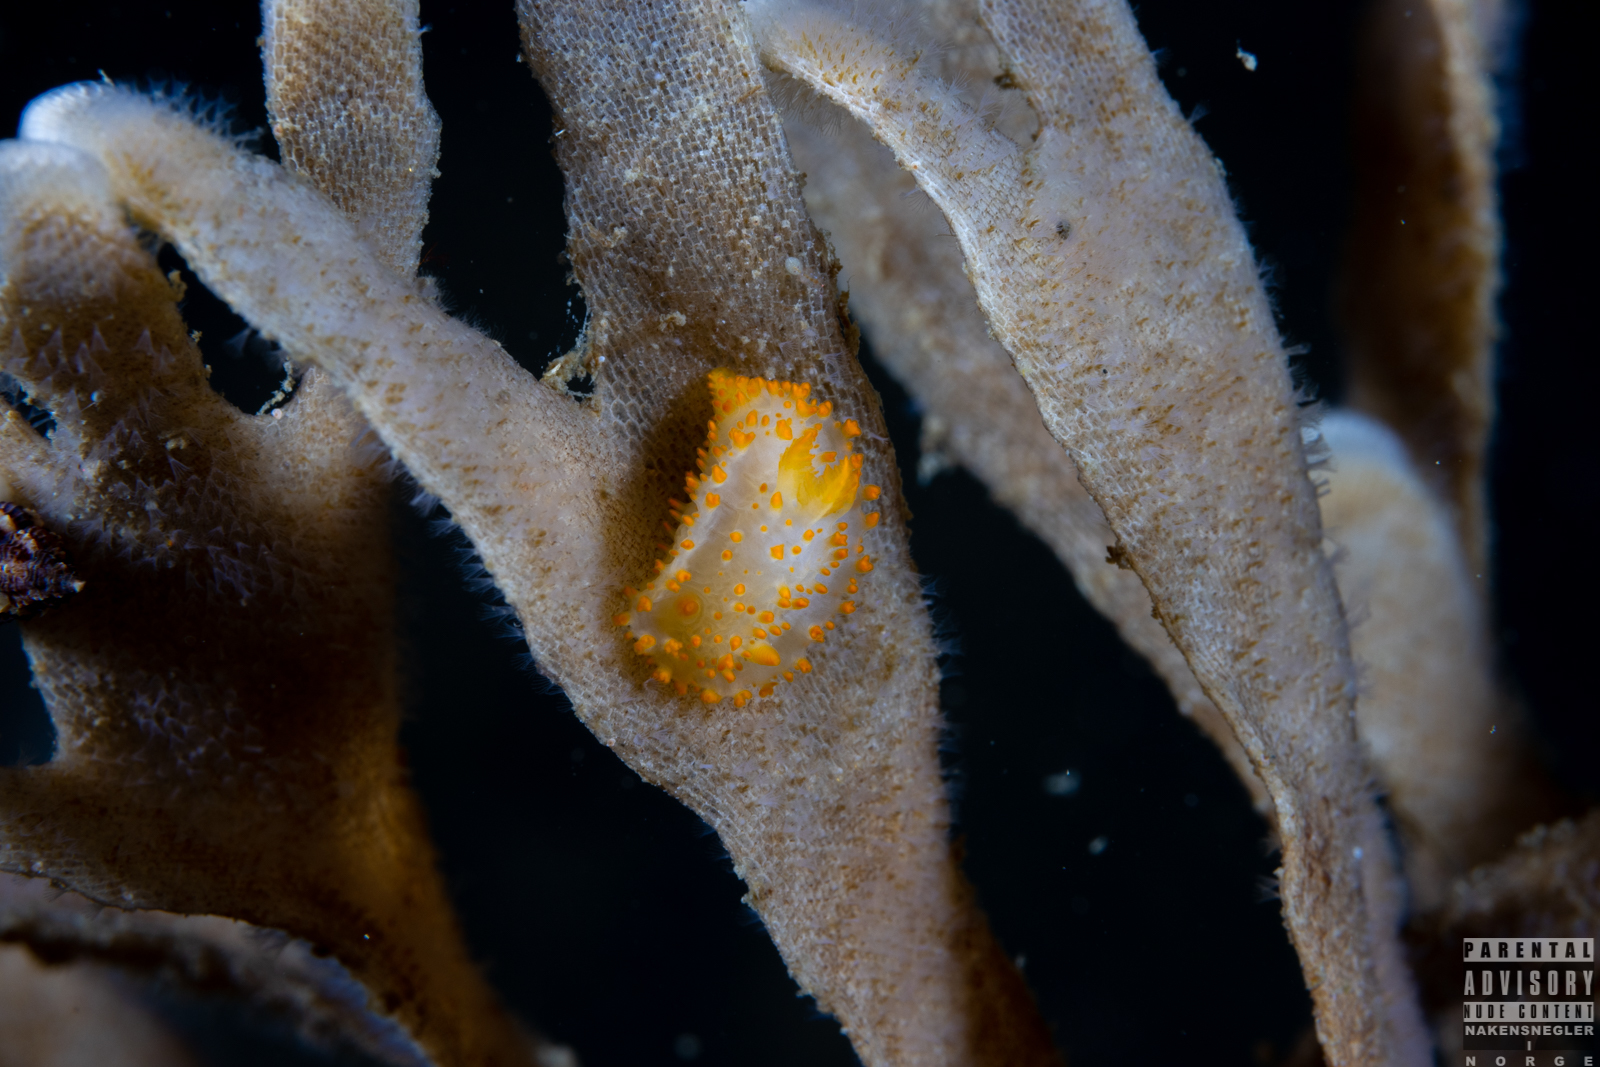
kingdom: Animalia
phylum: Mollusca
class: Gastropoda
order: Nudibranchia
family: Polyceridae
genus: Crimora
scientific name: Crimora papillata
